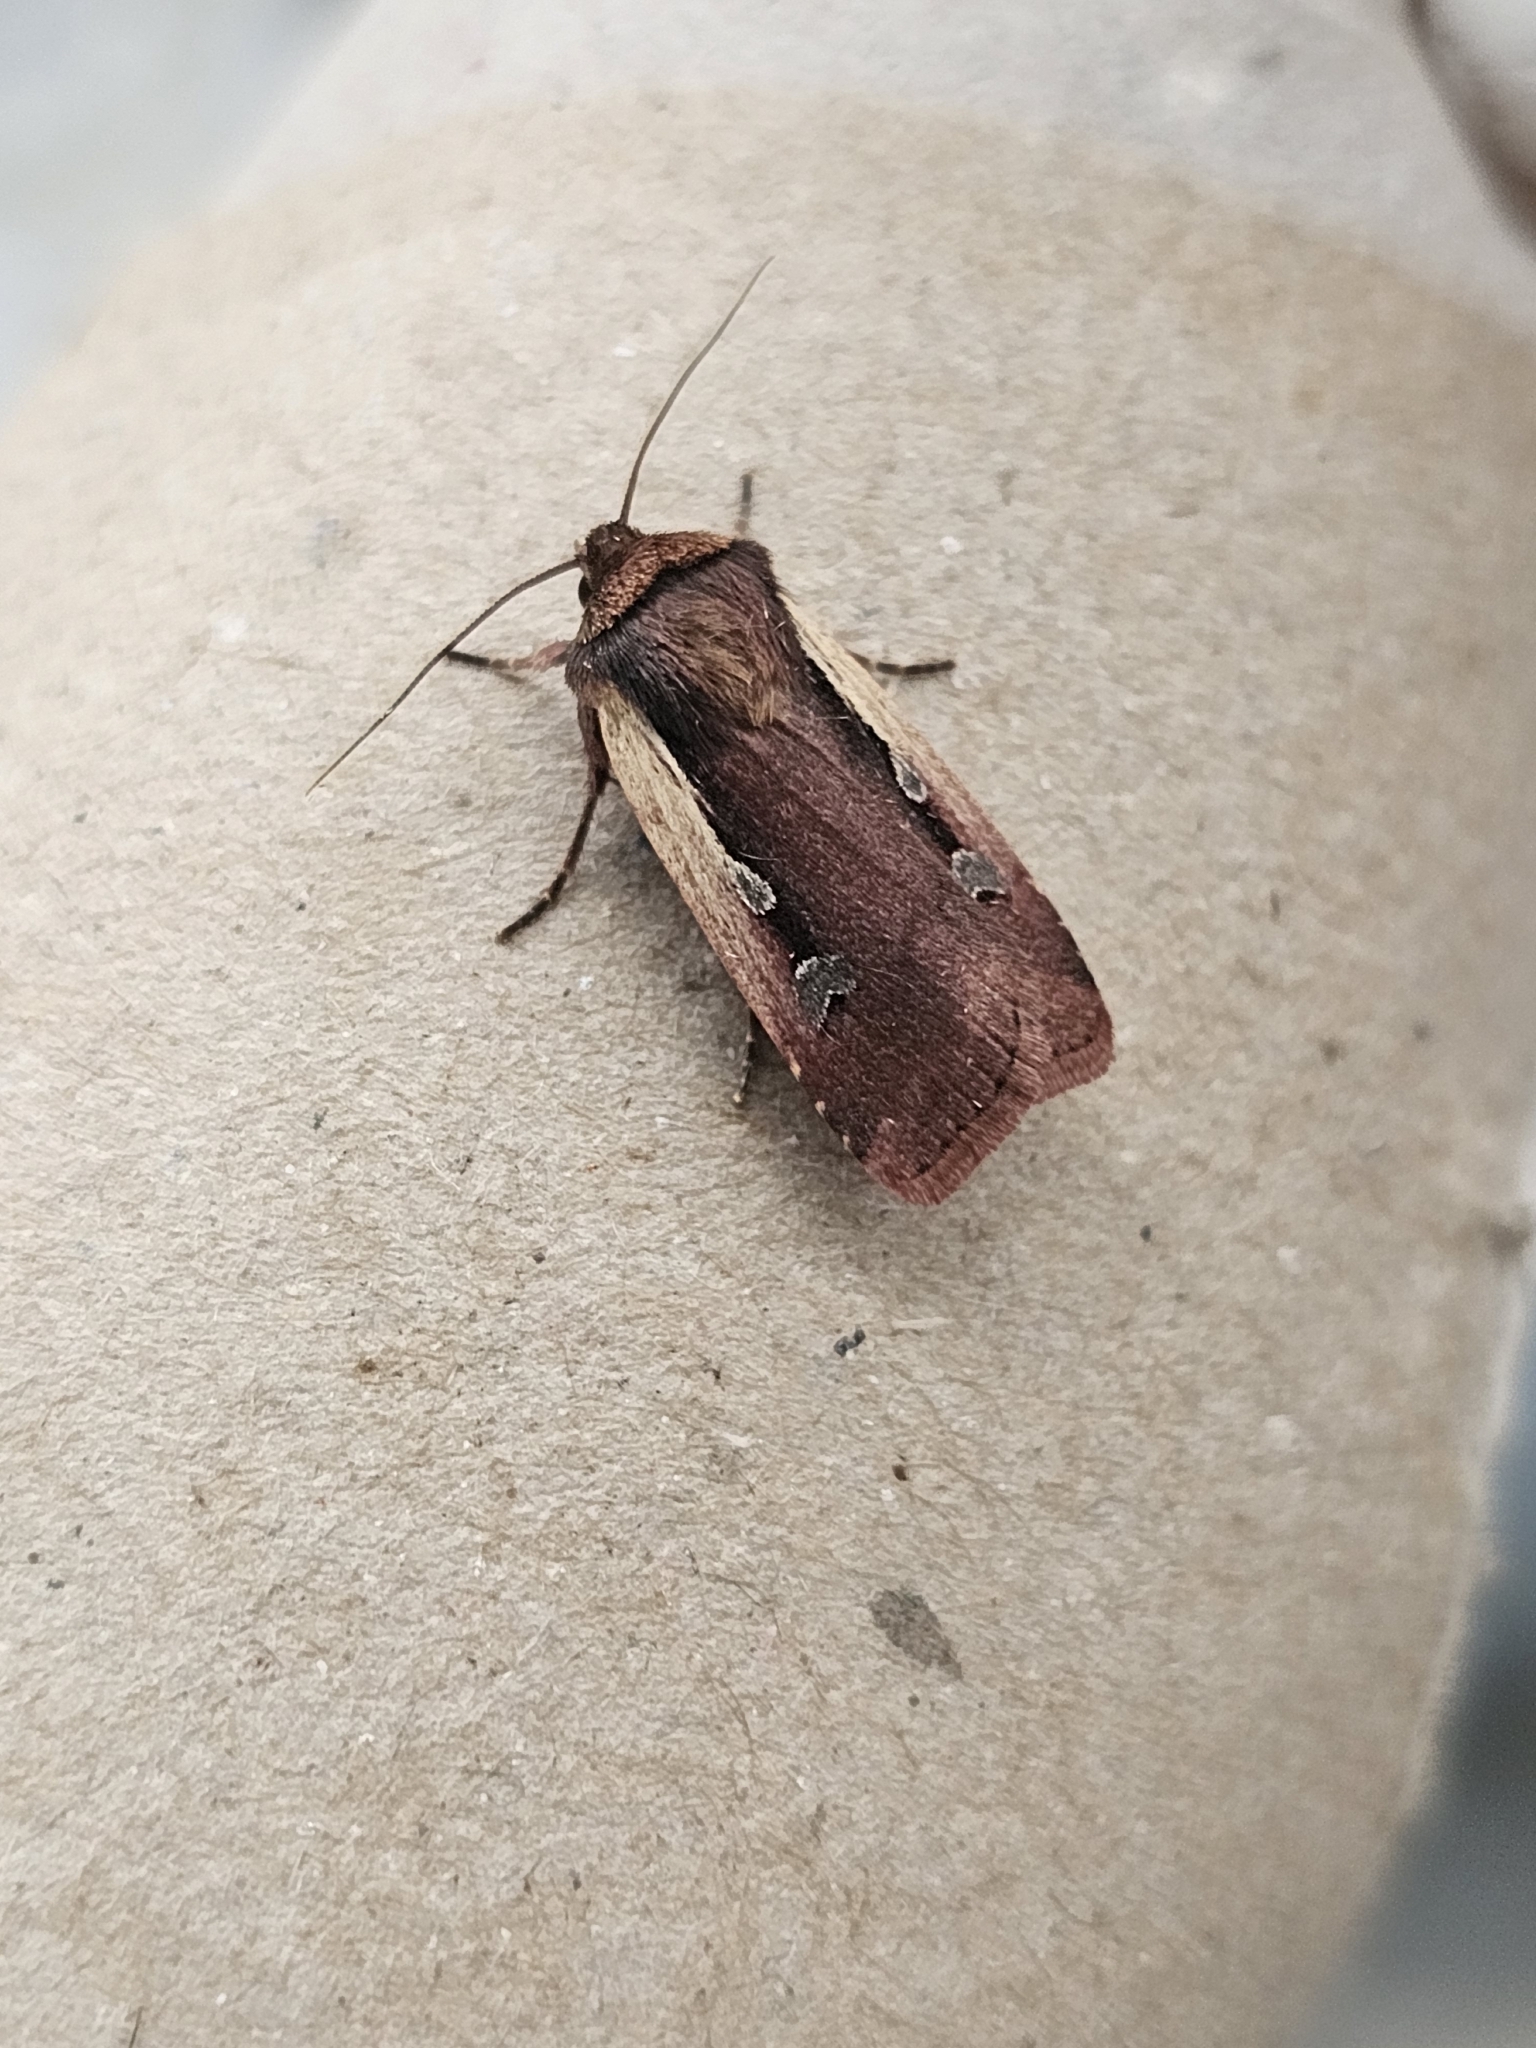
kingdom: Animalia
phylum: Arthropoda
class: Insecta
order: Lepidoptera
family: Noctuidae
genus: Ochropleura
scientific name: Ochropleura plecta
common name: Flame shoulder
